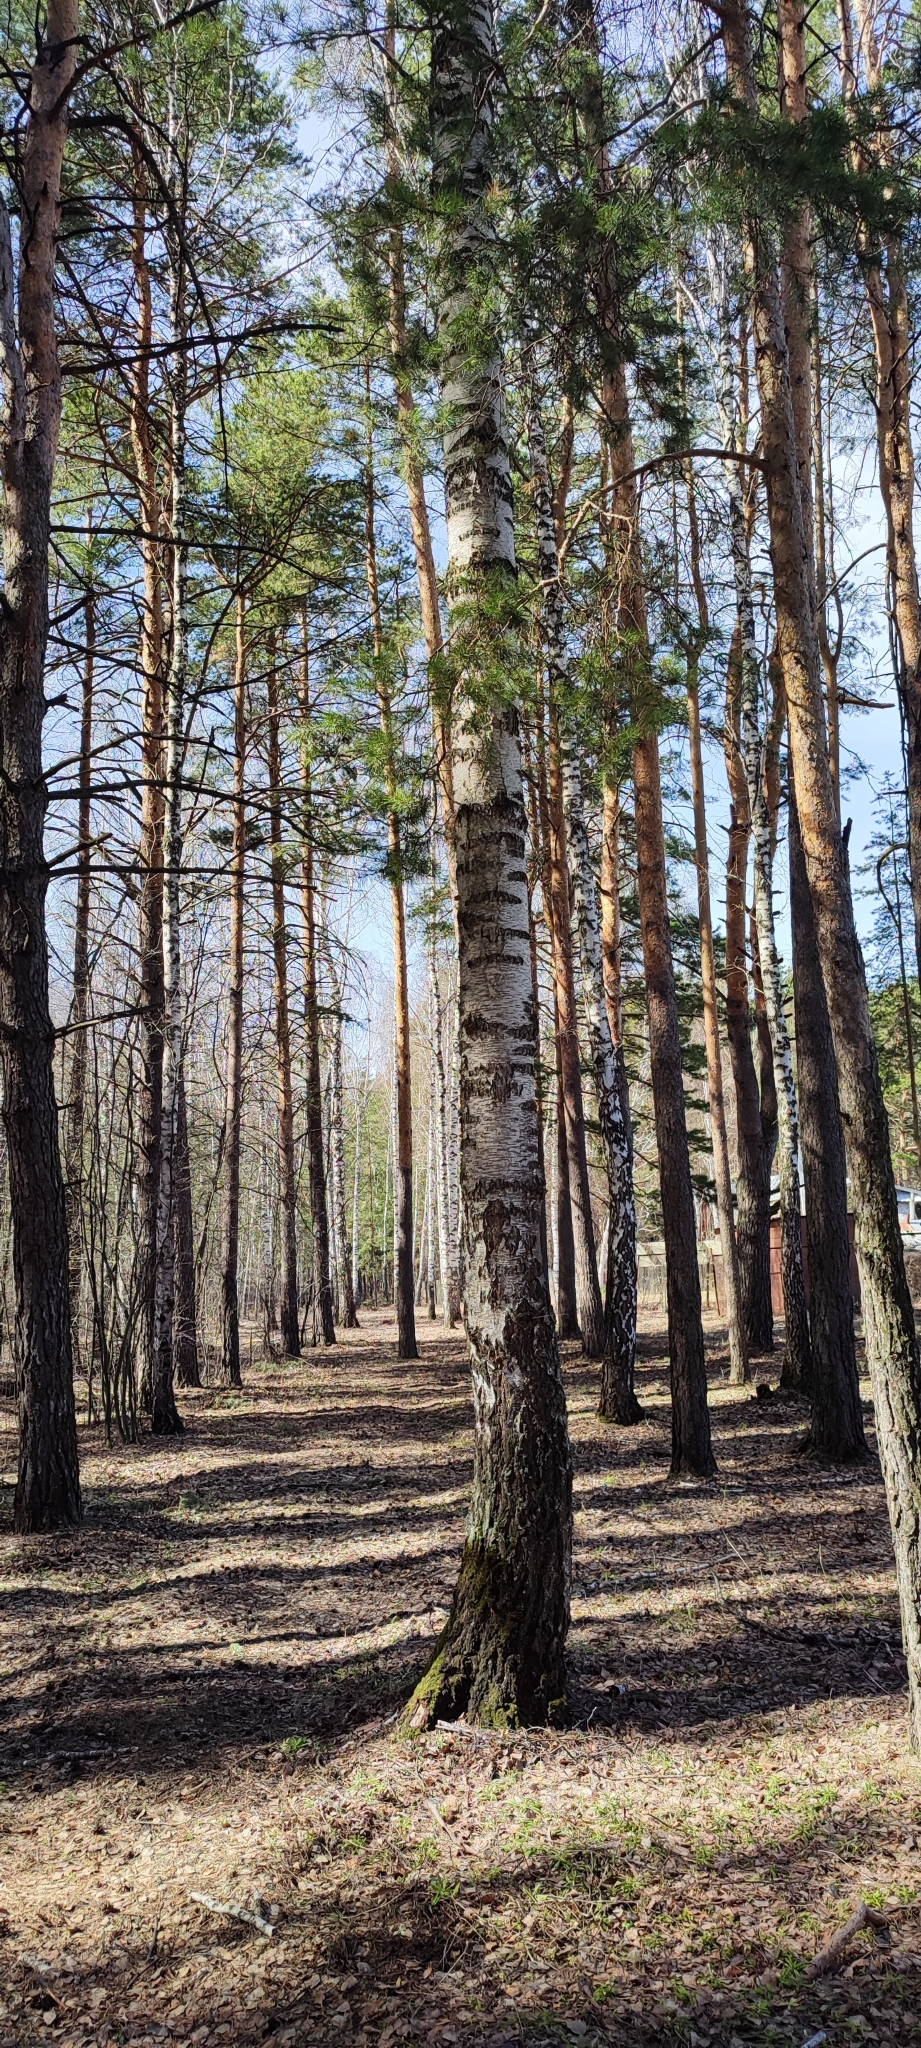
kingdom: Plantae
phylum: Tracheophyta
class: Magnoliopsida
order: Fagales
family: Betulaceae
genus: Betula
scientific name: Betula pendula
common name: Silver birch
